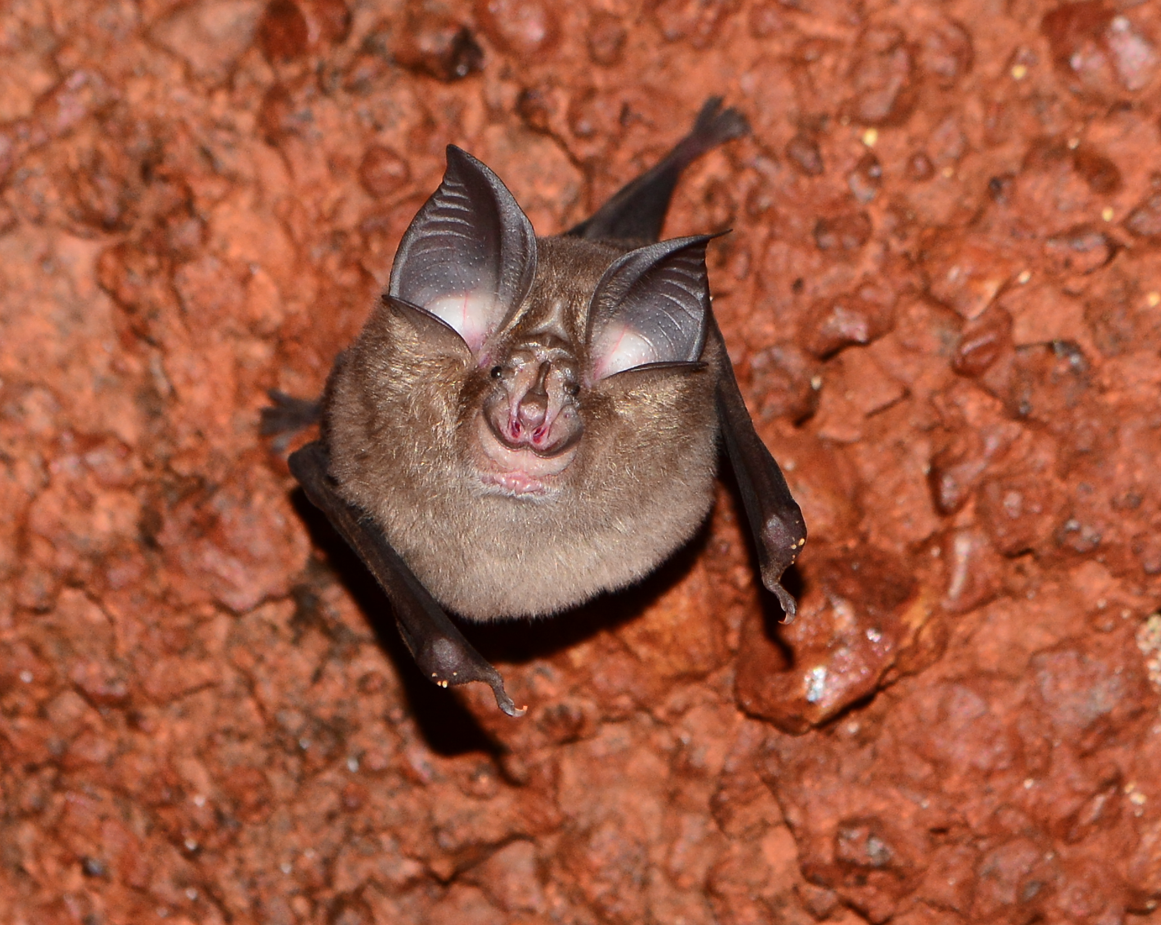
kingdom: Animalia
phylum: Chordata
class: Mammalia
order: Chiroptera
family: Rhinolophidae
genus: Rhinolophus
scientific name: Rhinolophus lepidus
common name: Blyth's horseshoe bat
